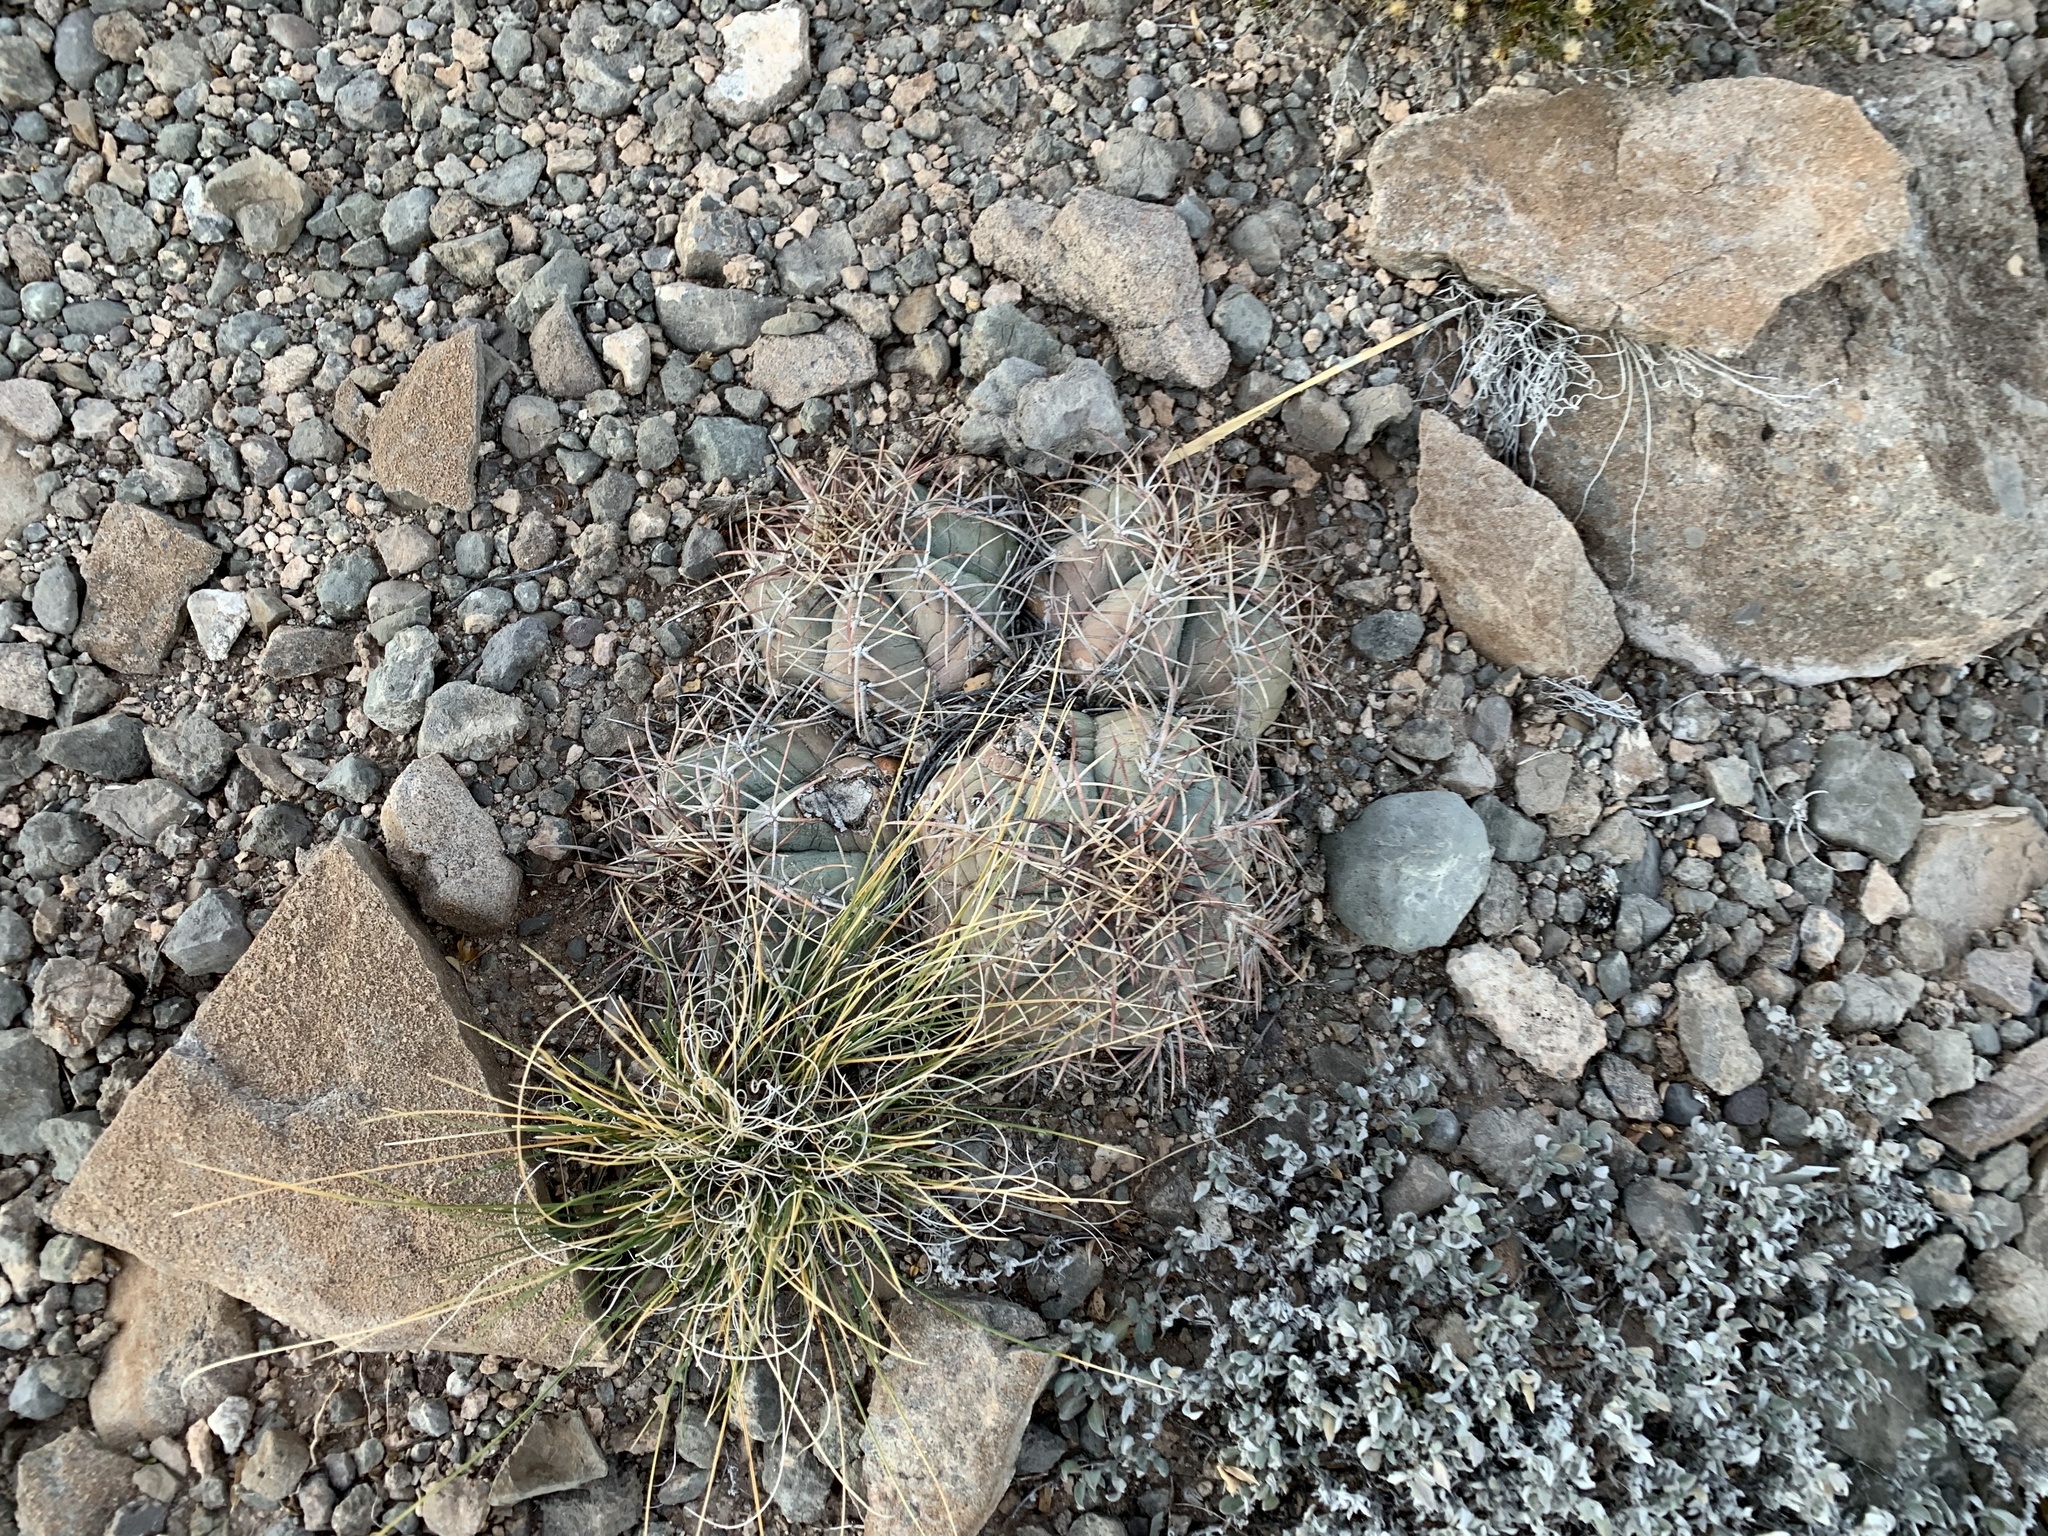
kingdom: Plantae
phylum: Tracheophyta
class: Magnoliopsida
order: Caryophyllales
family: Cactaceae
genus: Echinocactus
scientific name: Echinocactus horizonthalonius
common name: Devilshead
